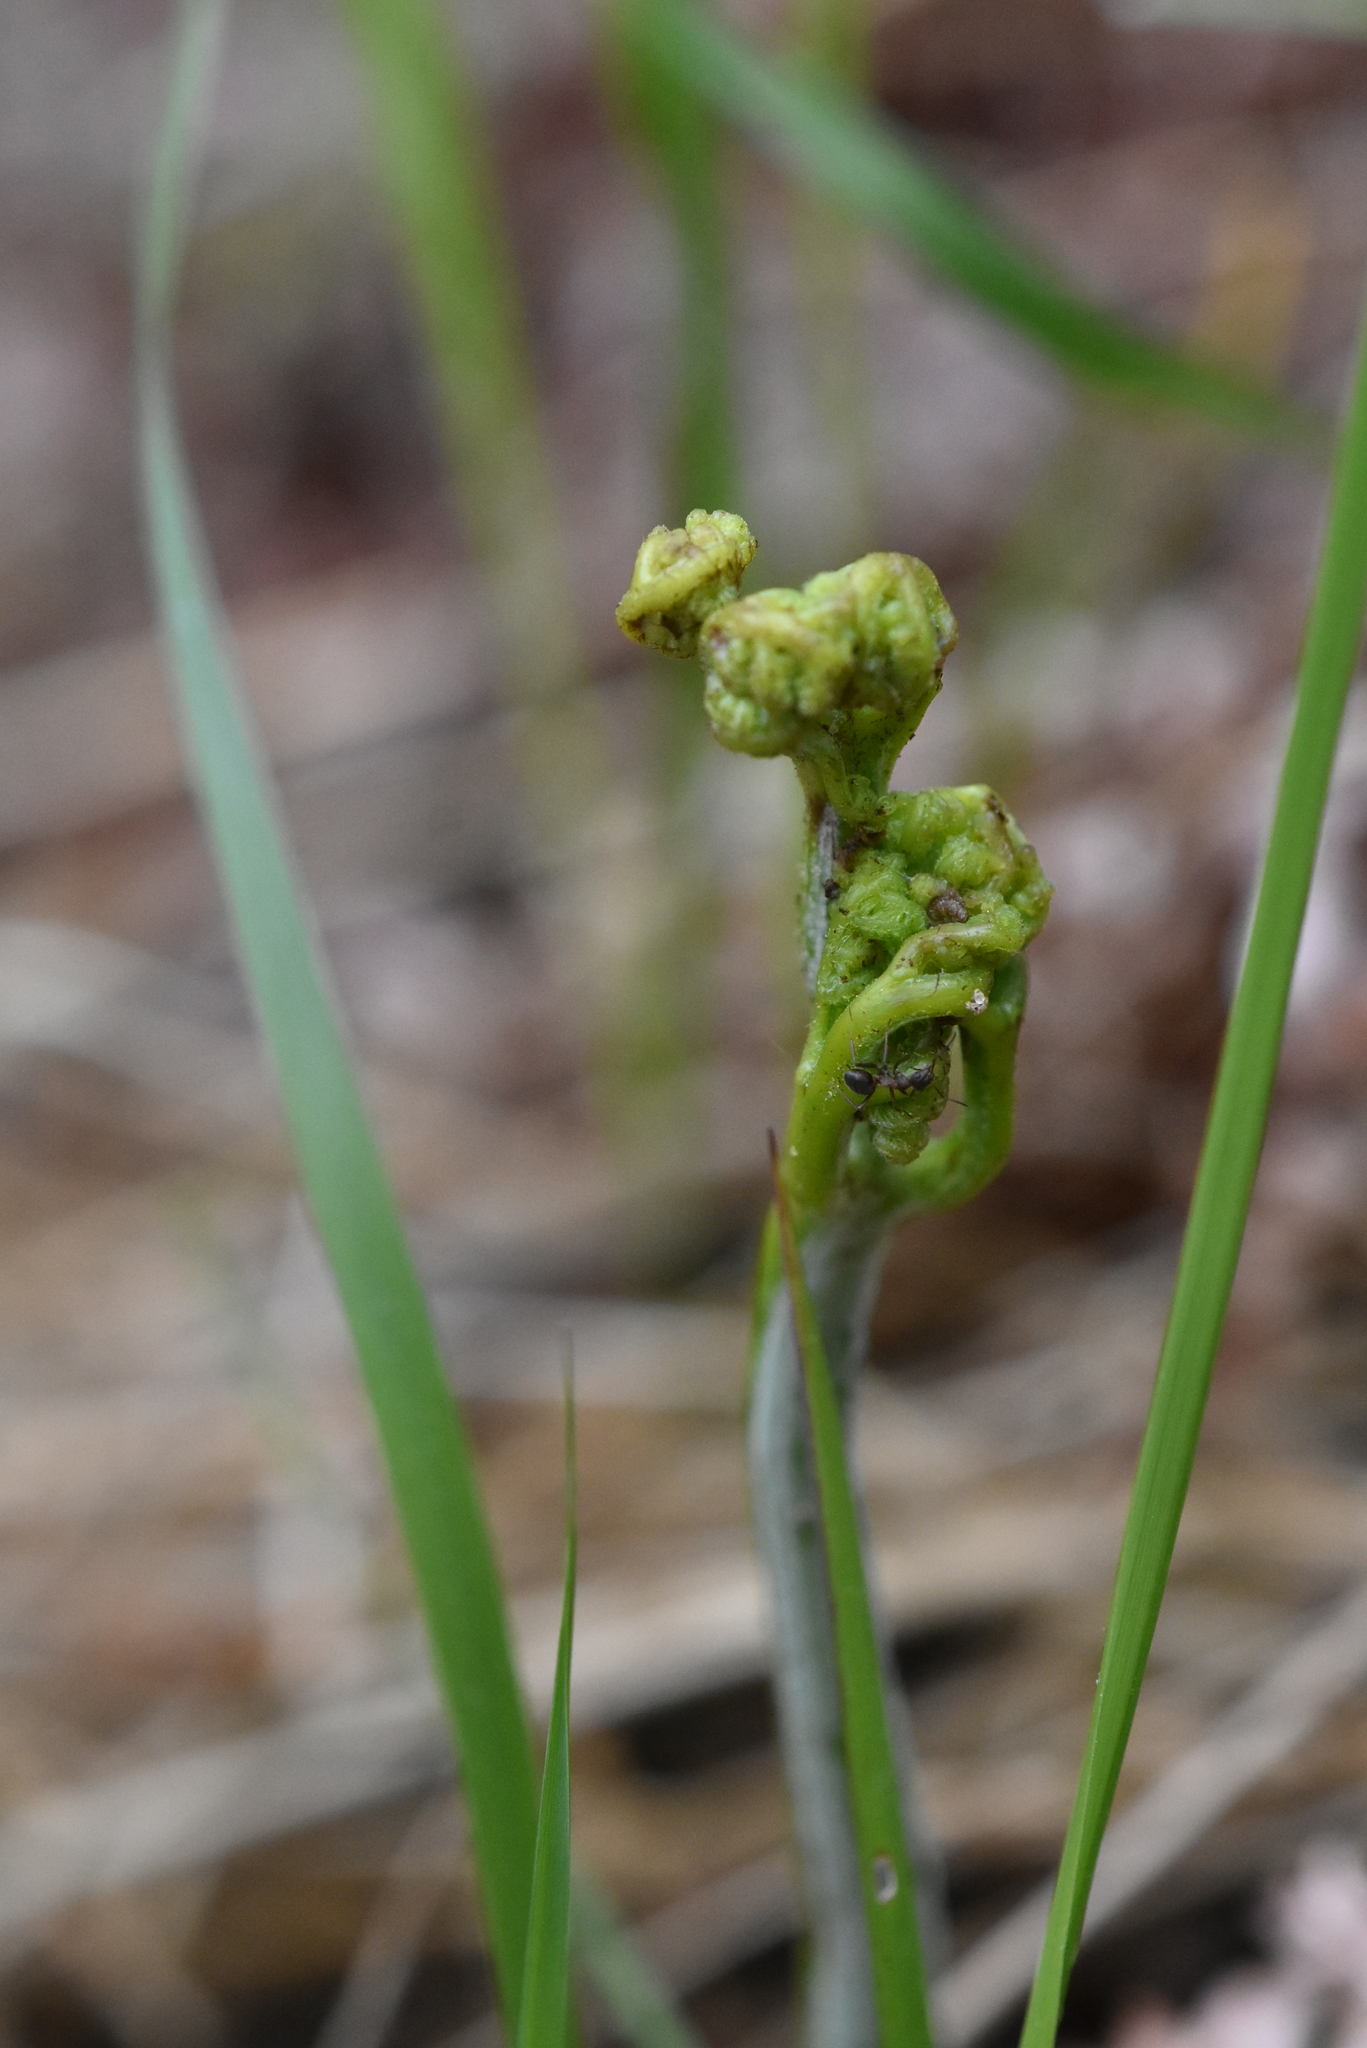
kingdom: Plantae
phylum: Tracheophyta
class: Polypodiopsida
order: Polypodiales
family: Dennstaedtiaceae
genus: Pteridium
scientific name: Pteridium aquilinum
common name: Bracken
